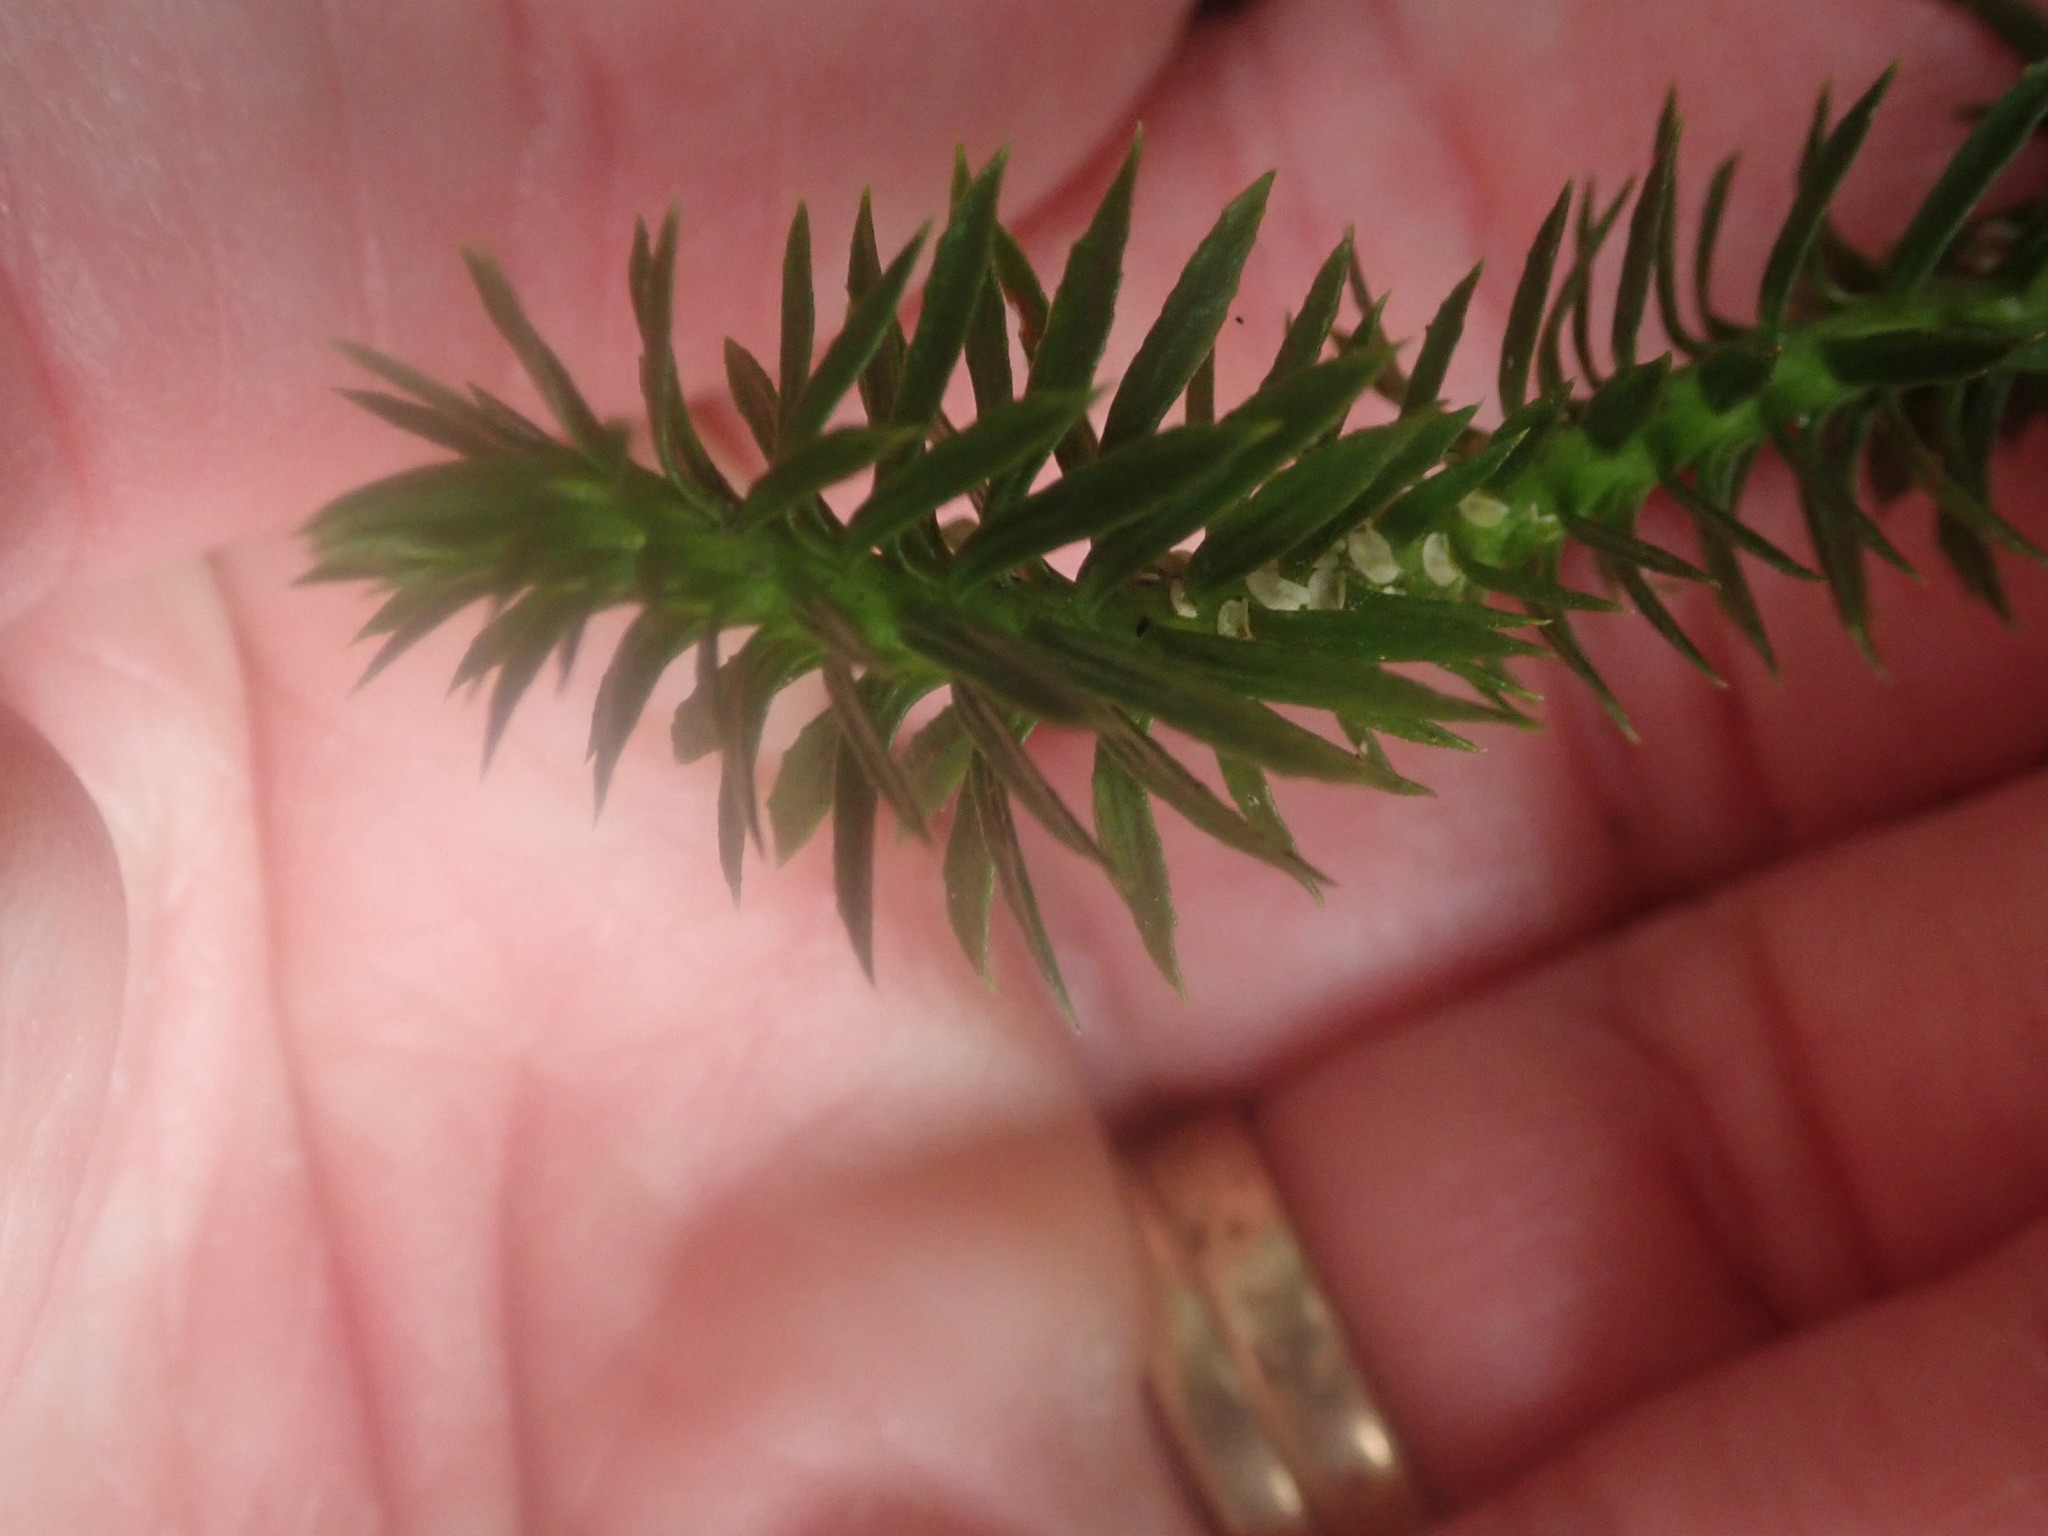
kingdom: Plantae
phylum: Tracheophyta
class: Lycopodiopsida
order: Lycopodiales
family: Lycopodiaceae
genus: Huperzia
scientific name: Huperzia lucidula
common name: Shining clubmoss
